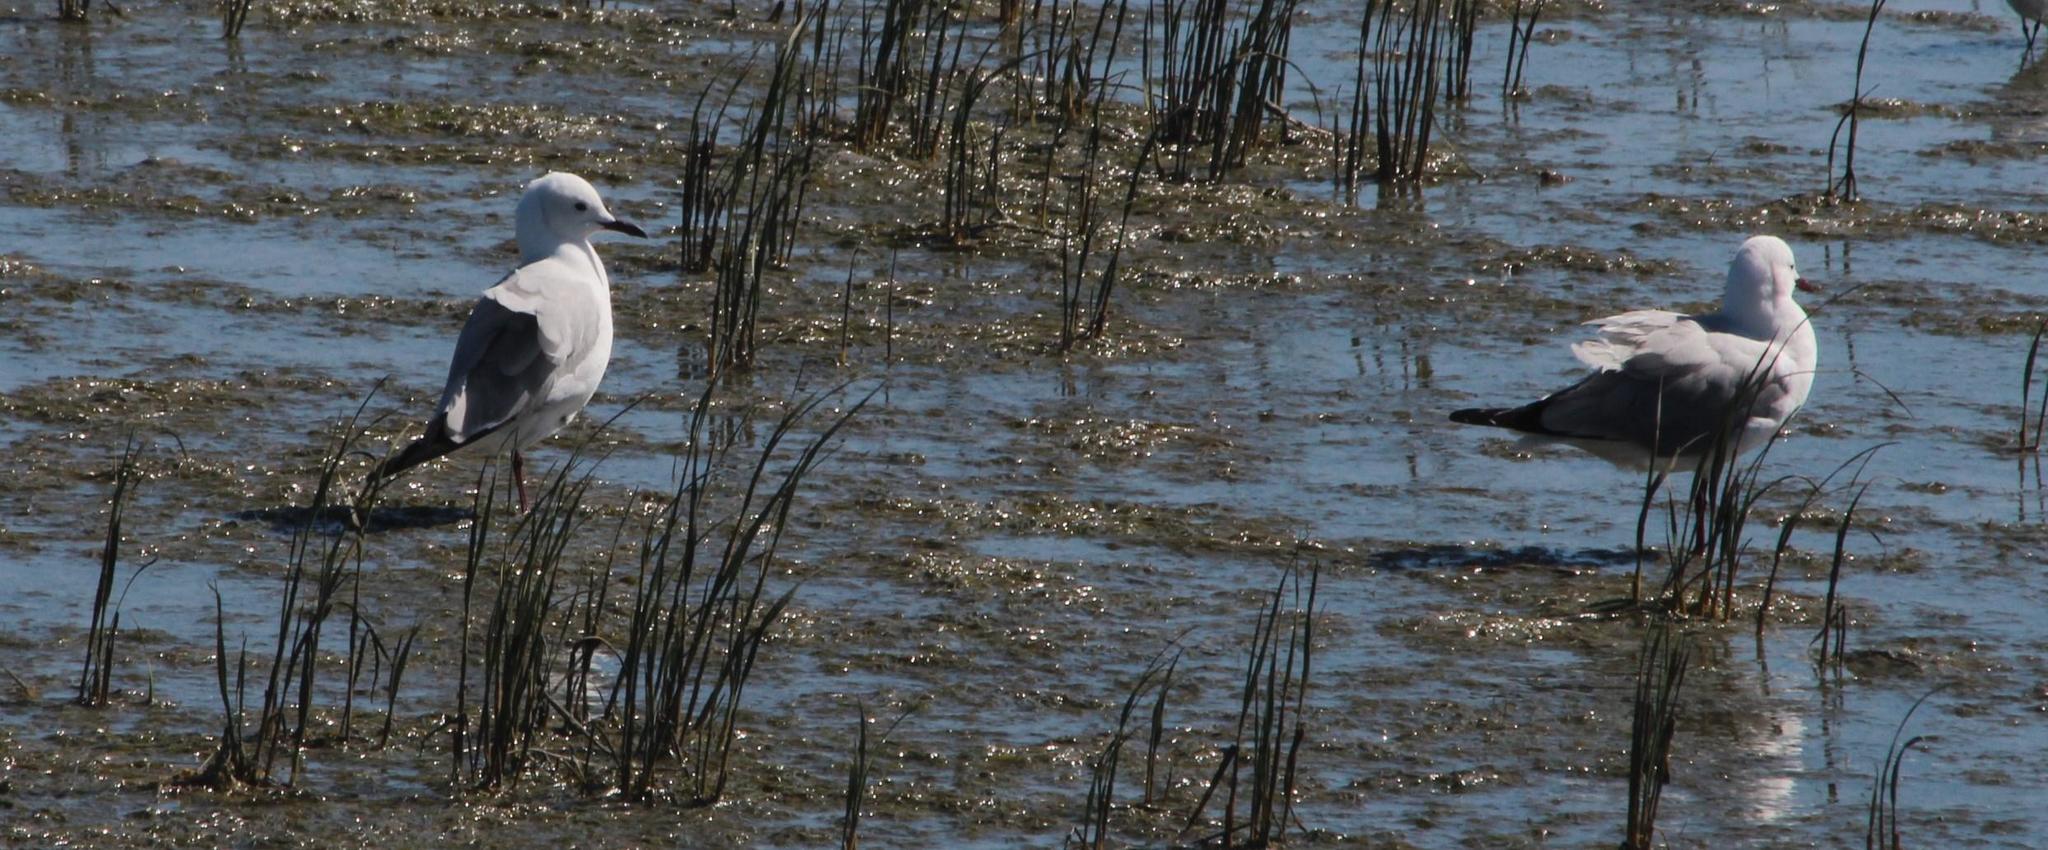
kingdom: Animalia
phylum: Chordata
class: Aves
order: Charadriiformes
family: Laridae
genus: Chroicocephalus
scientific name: Chroicocephalus hartlaubii
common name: Hartlaub's gull
